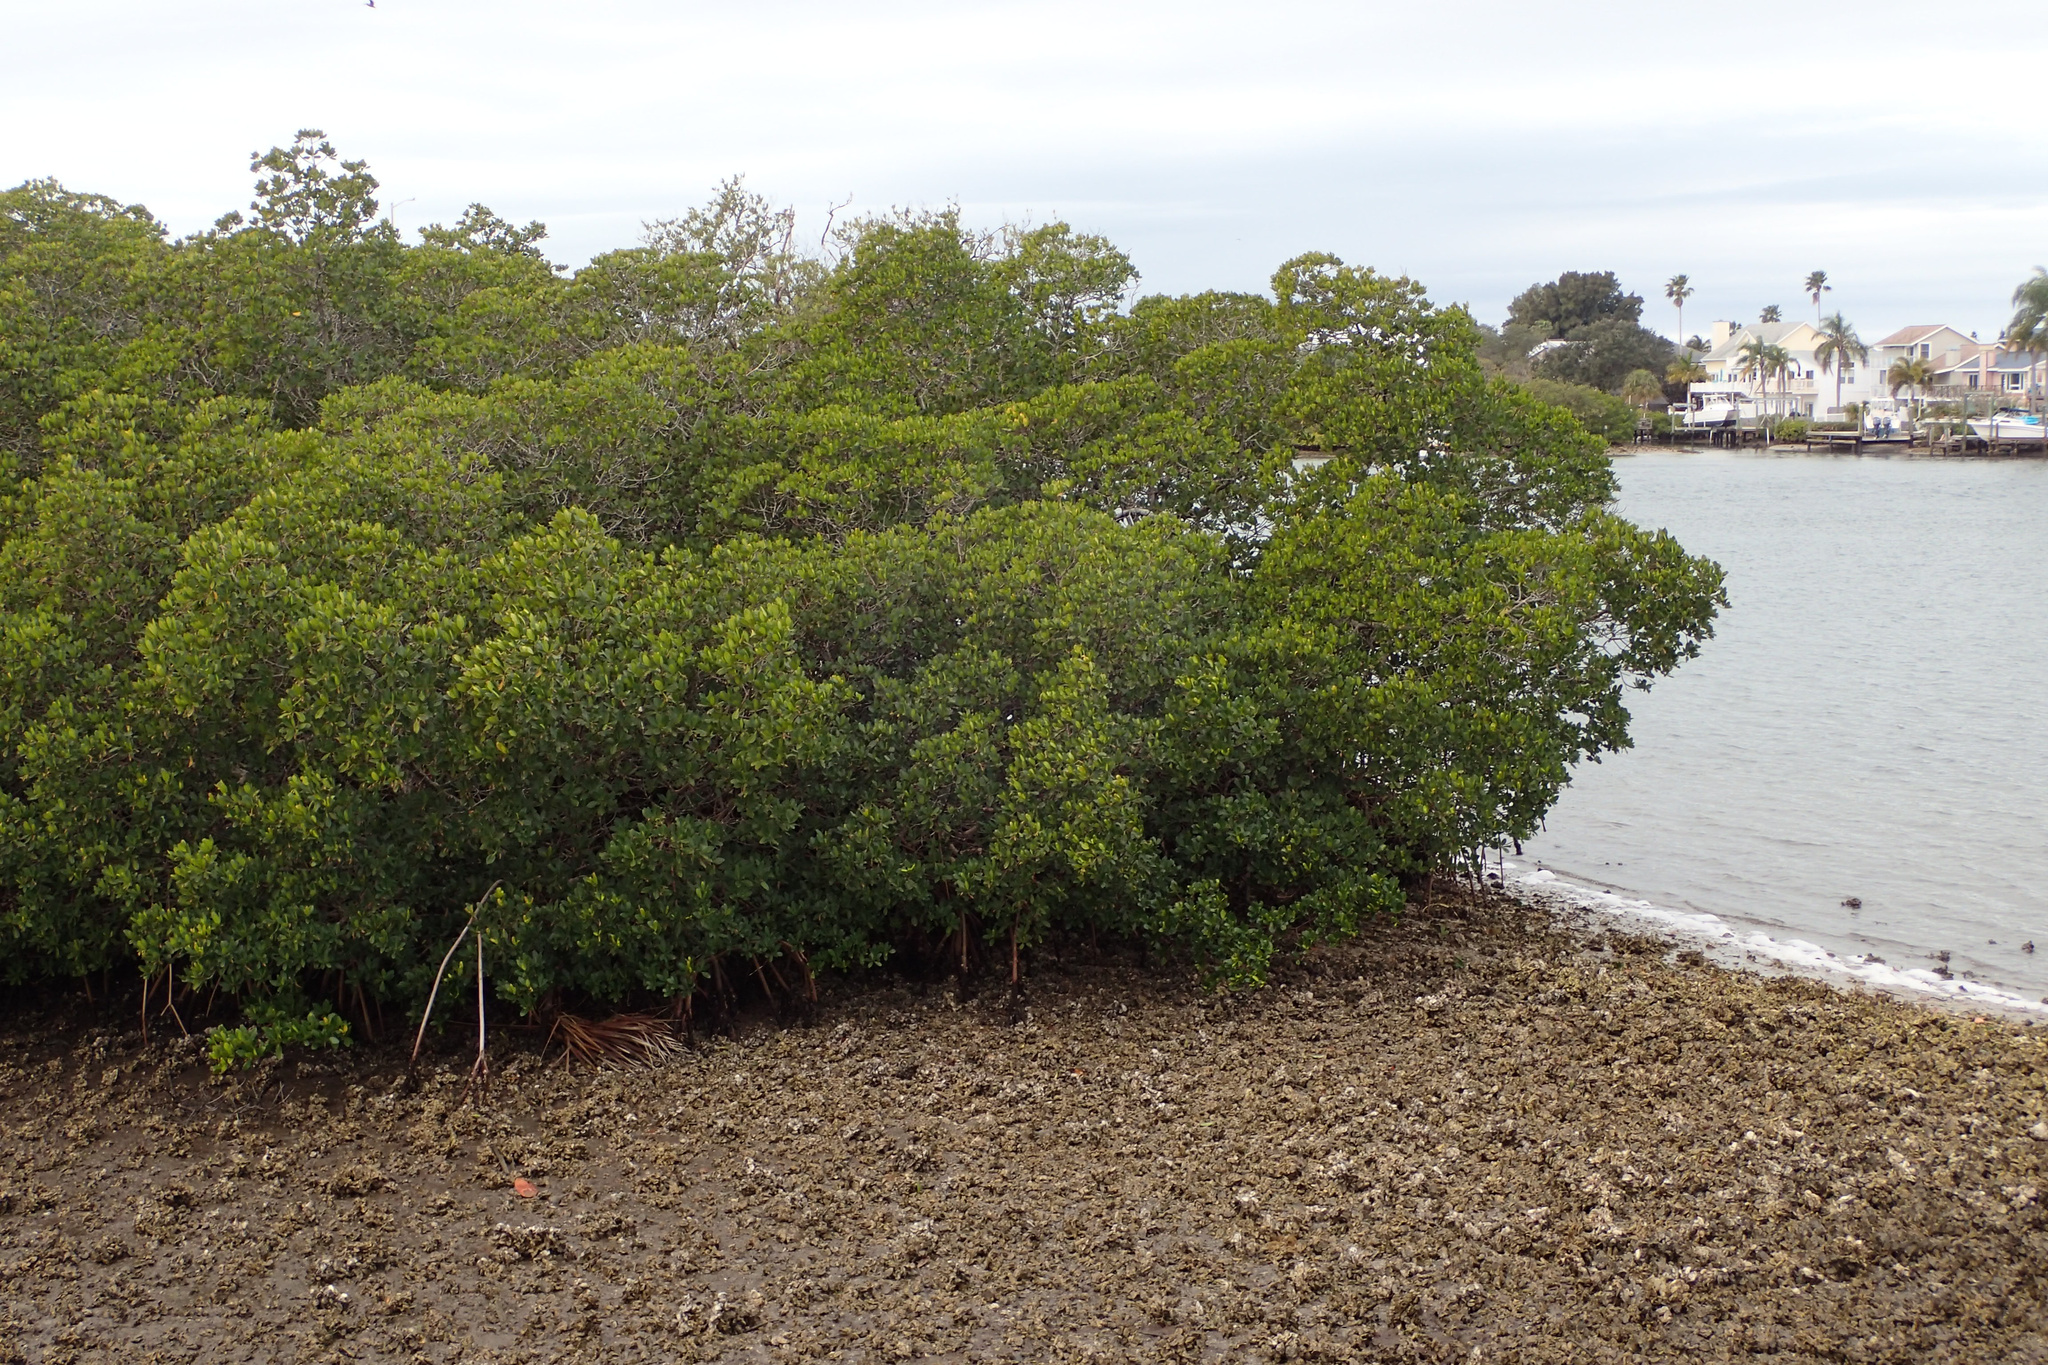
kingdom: Plantae
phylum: Tracheophyta
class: Magnoliopsida
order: Malpighiales
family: Rhizophoraceae
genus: Rhizophora
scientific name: Rhizophora mangle
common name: Red mangrove
